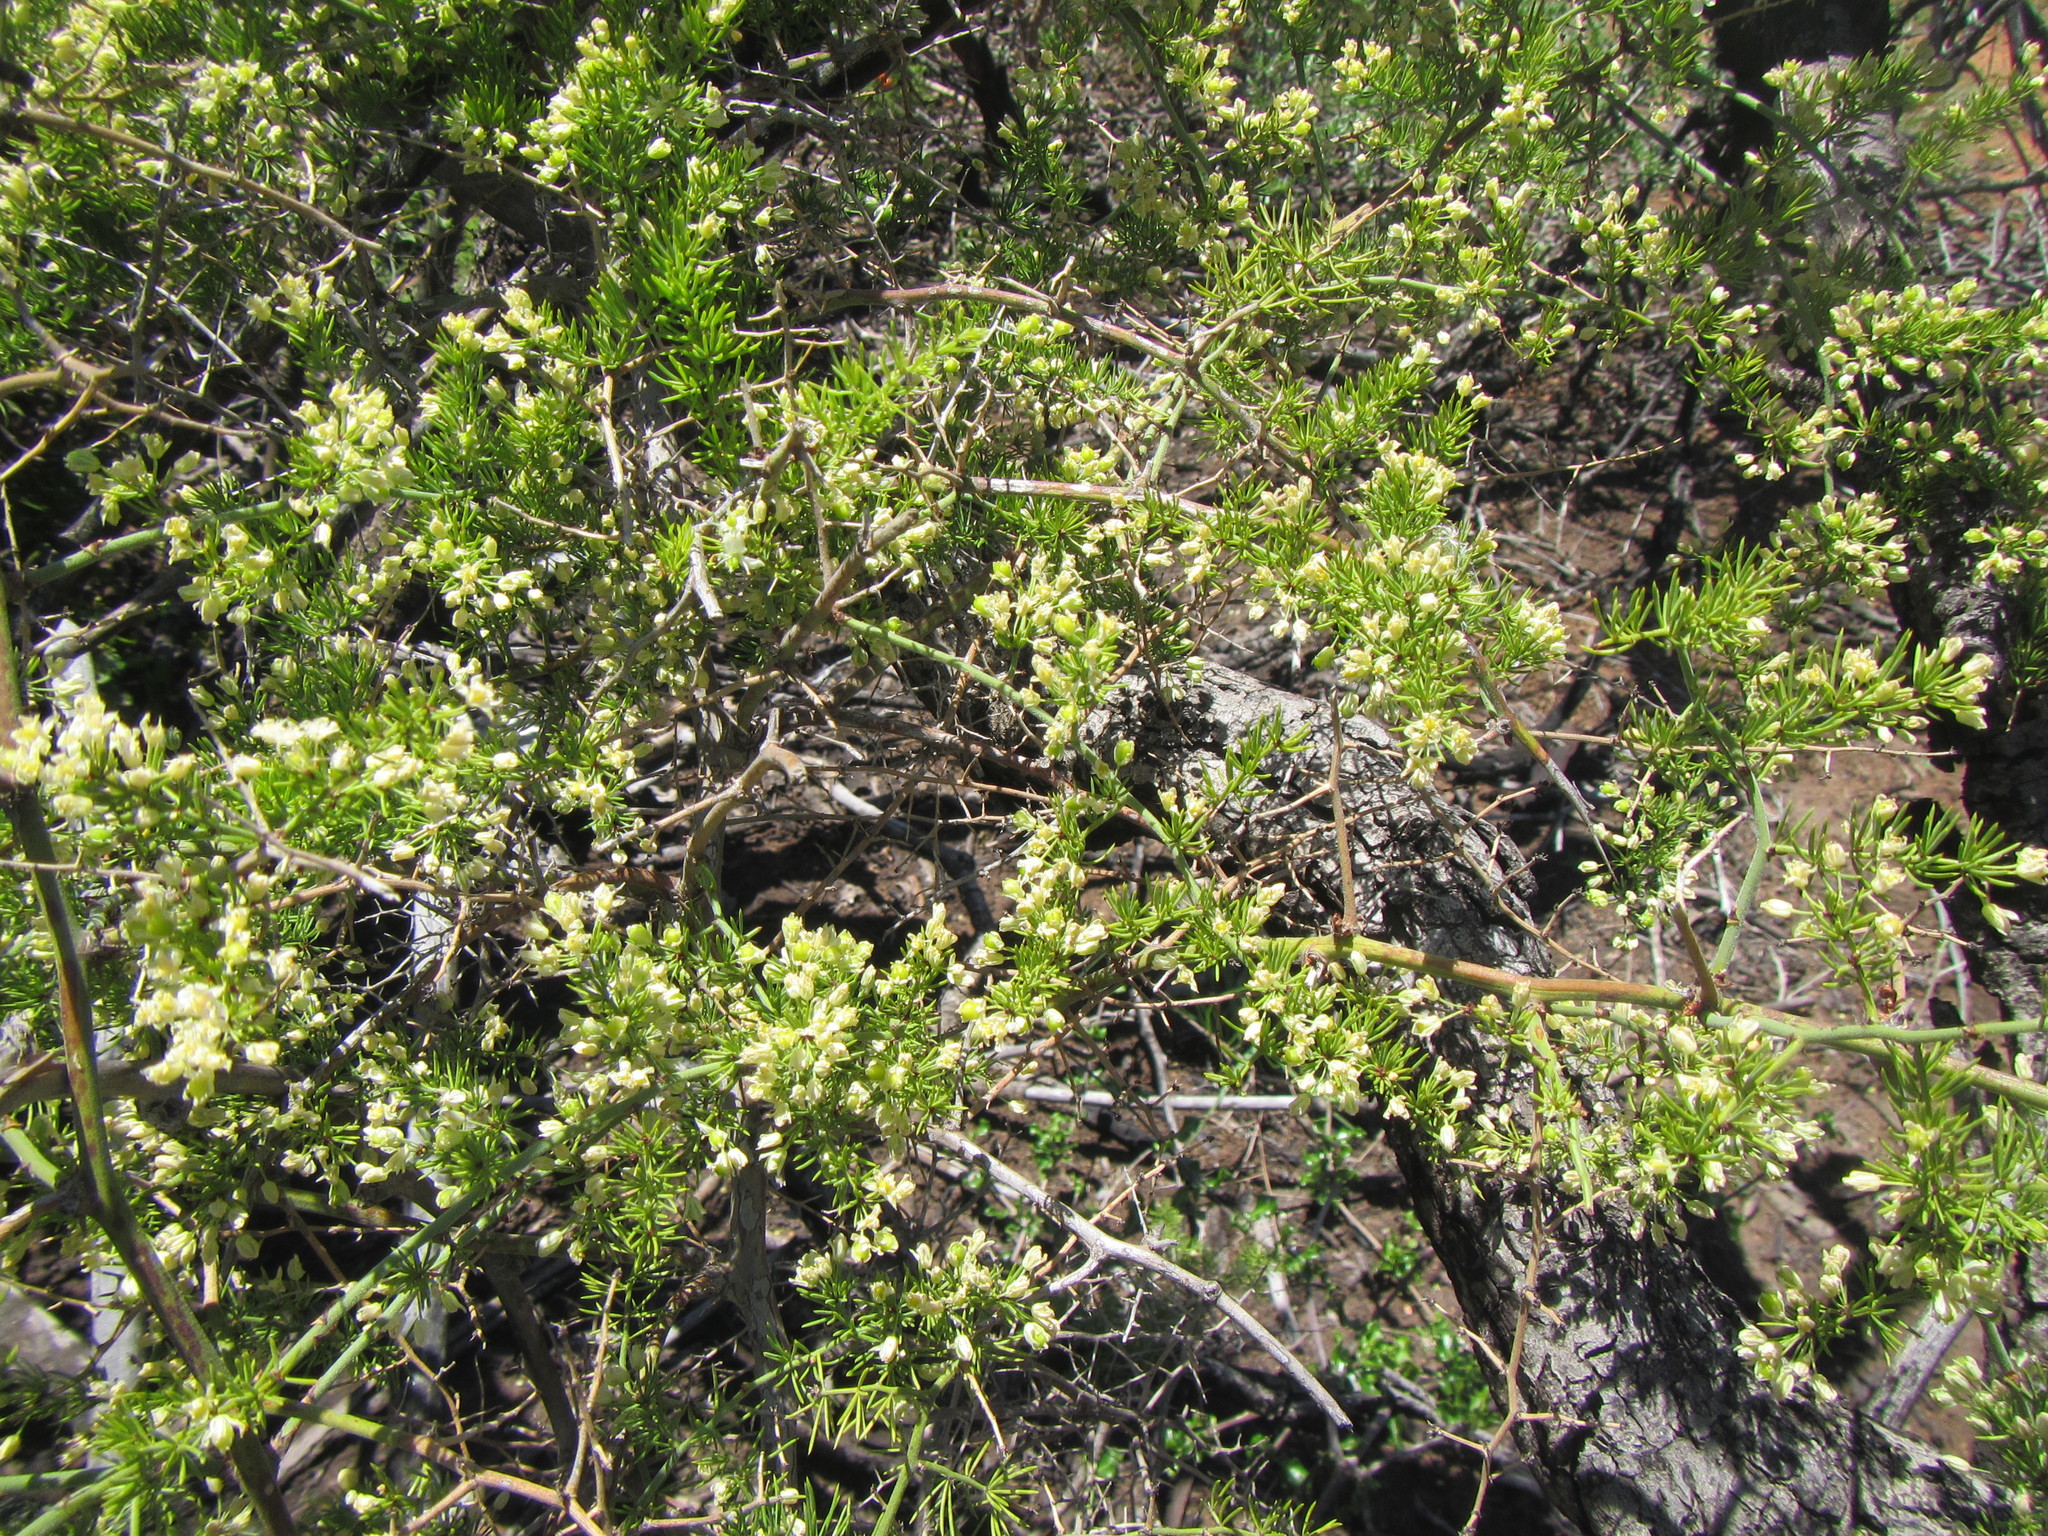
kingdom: Plantae
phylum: Tracheophyta
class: Liliopsida
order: Asparagales
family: Asparagaceae
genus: Asparagus
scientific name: Asparagus africanus
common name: Asparagus-fern
